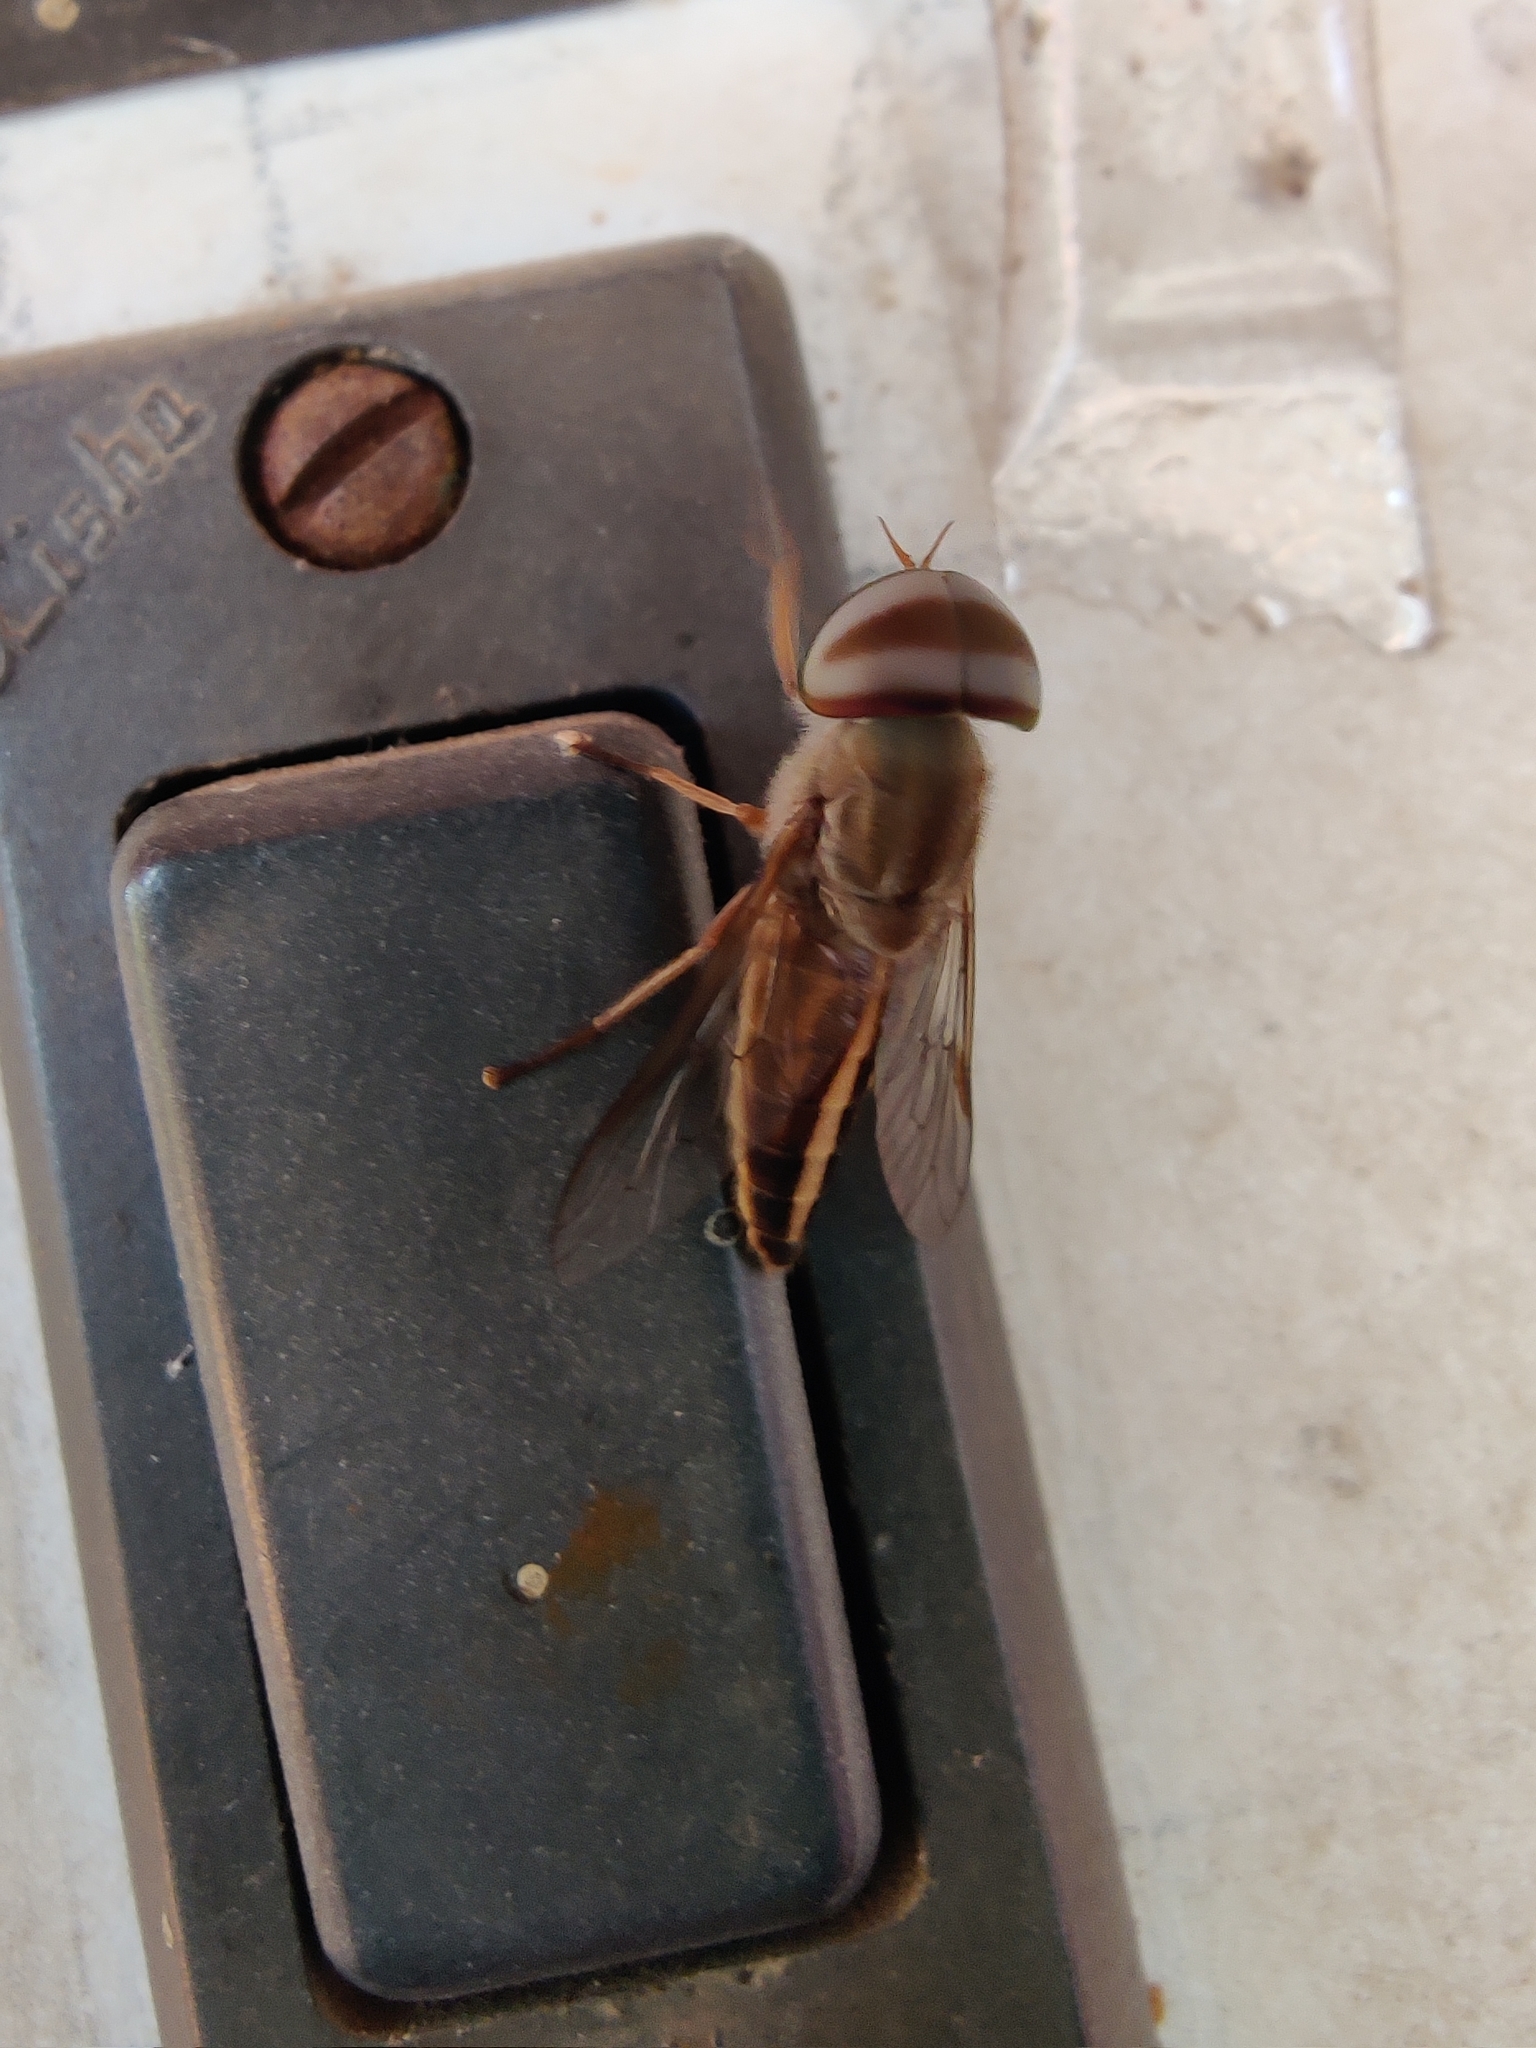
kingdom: Animalia
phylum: Arthropoda
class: Insecta
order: Diptera
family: Tabanidae
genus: Tabanus
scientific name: Tabanus dorsiger
